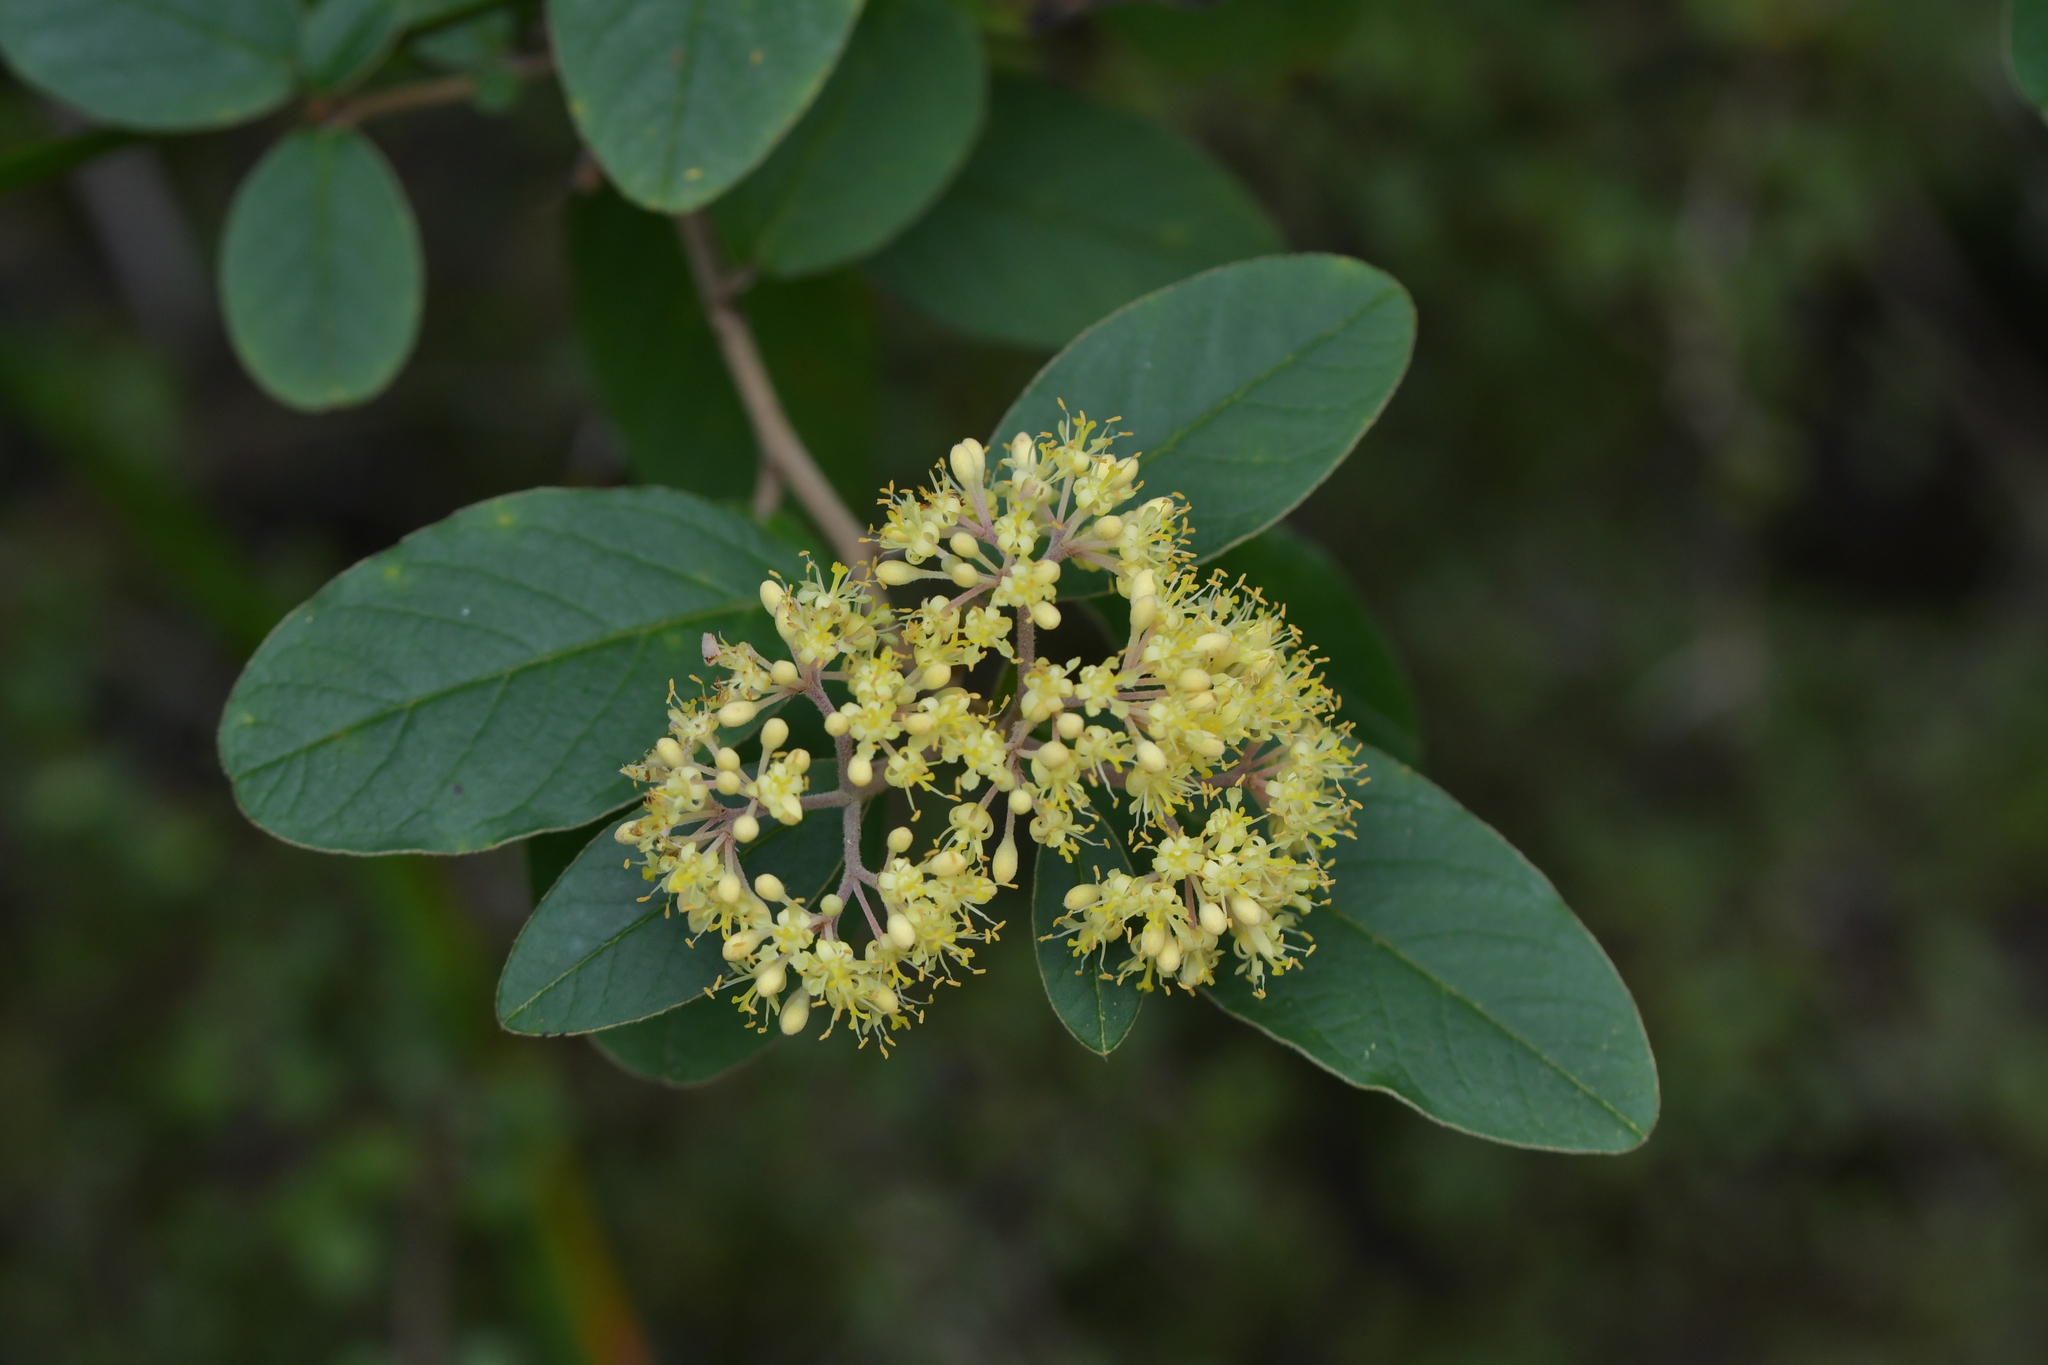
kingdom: Plantae
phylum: Tracheophyta
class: Magnoliopsida
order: Rosales
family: Rhamnaceae
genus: Pomaderris
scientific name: Pomaderris kumeraho
